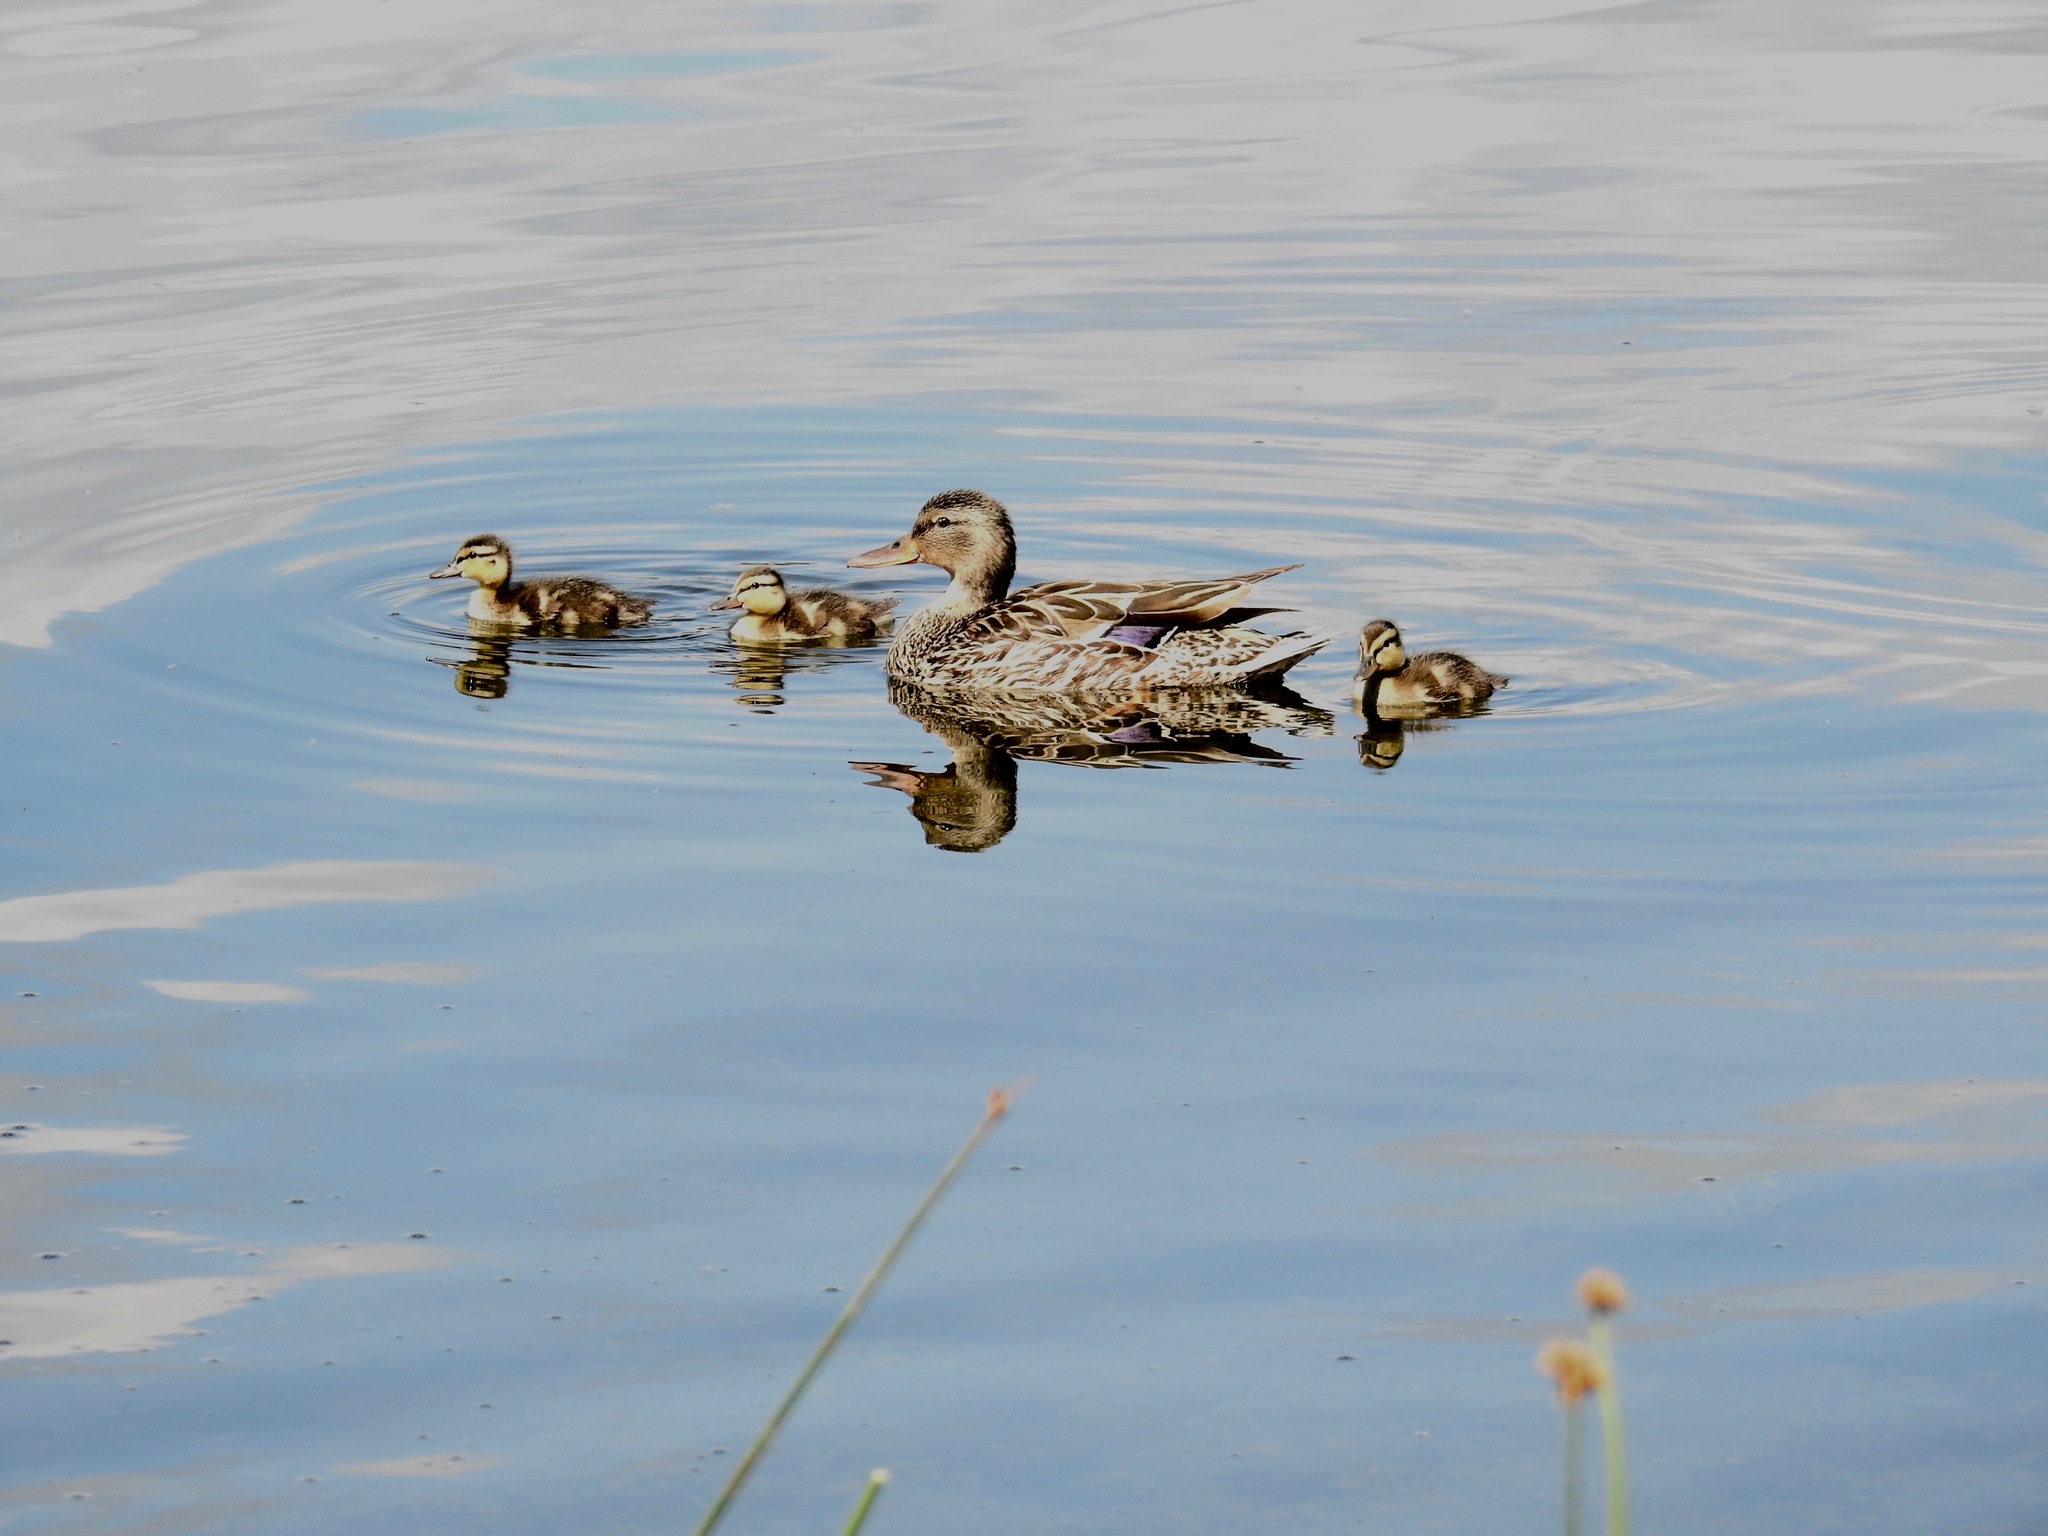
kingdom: Animalia
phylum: Chordata
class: Aves
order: Anseriformes
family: Anatidae
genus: Anas
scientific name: Anas platyrhynchos
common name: Mallard
